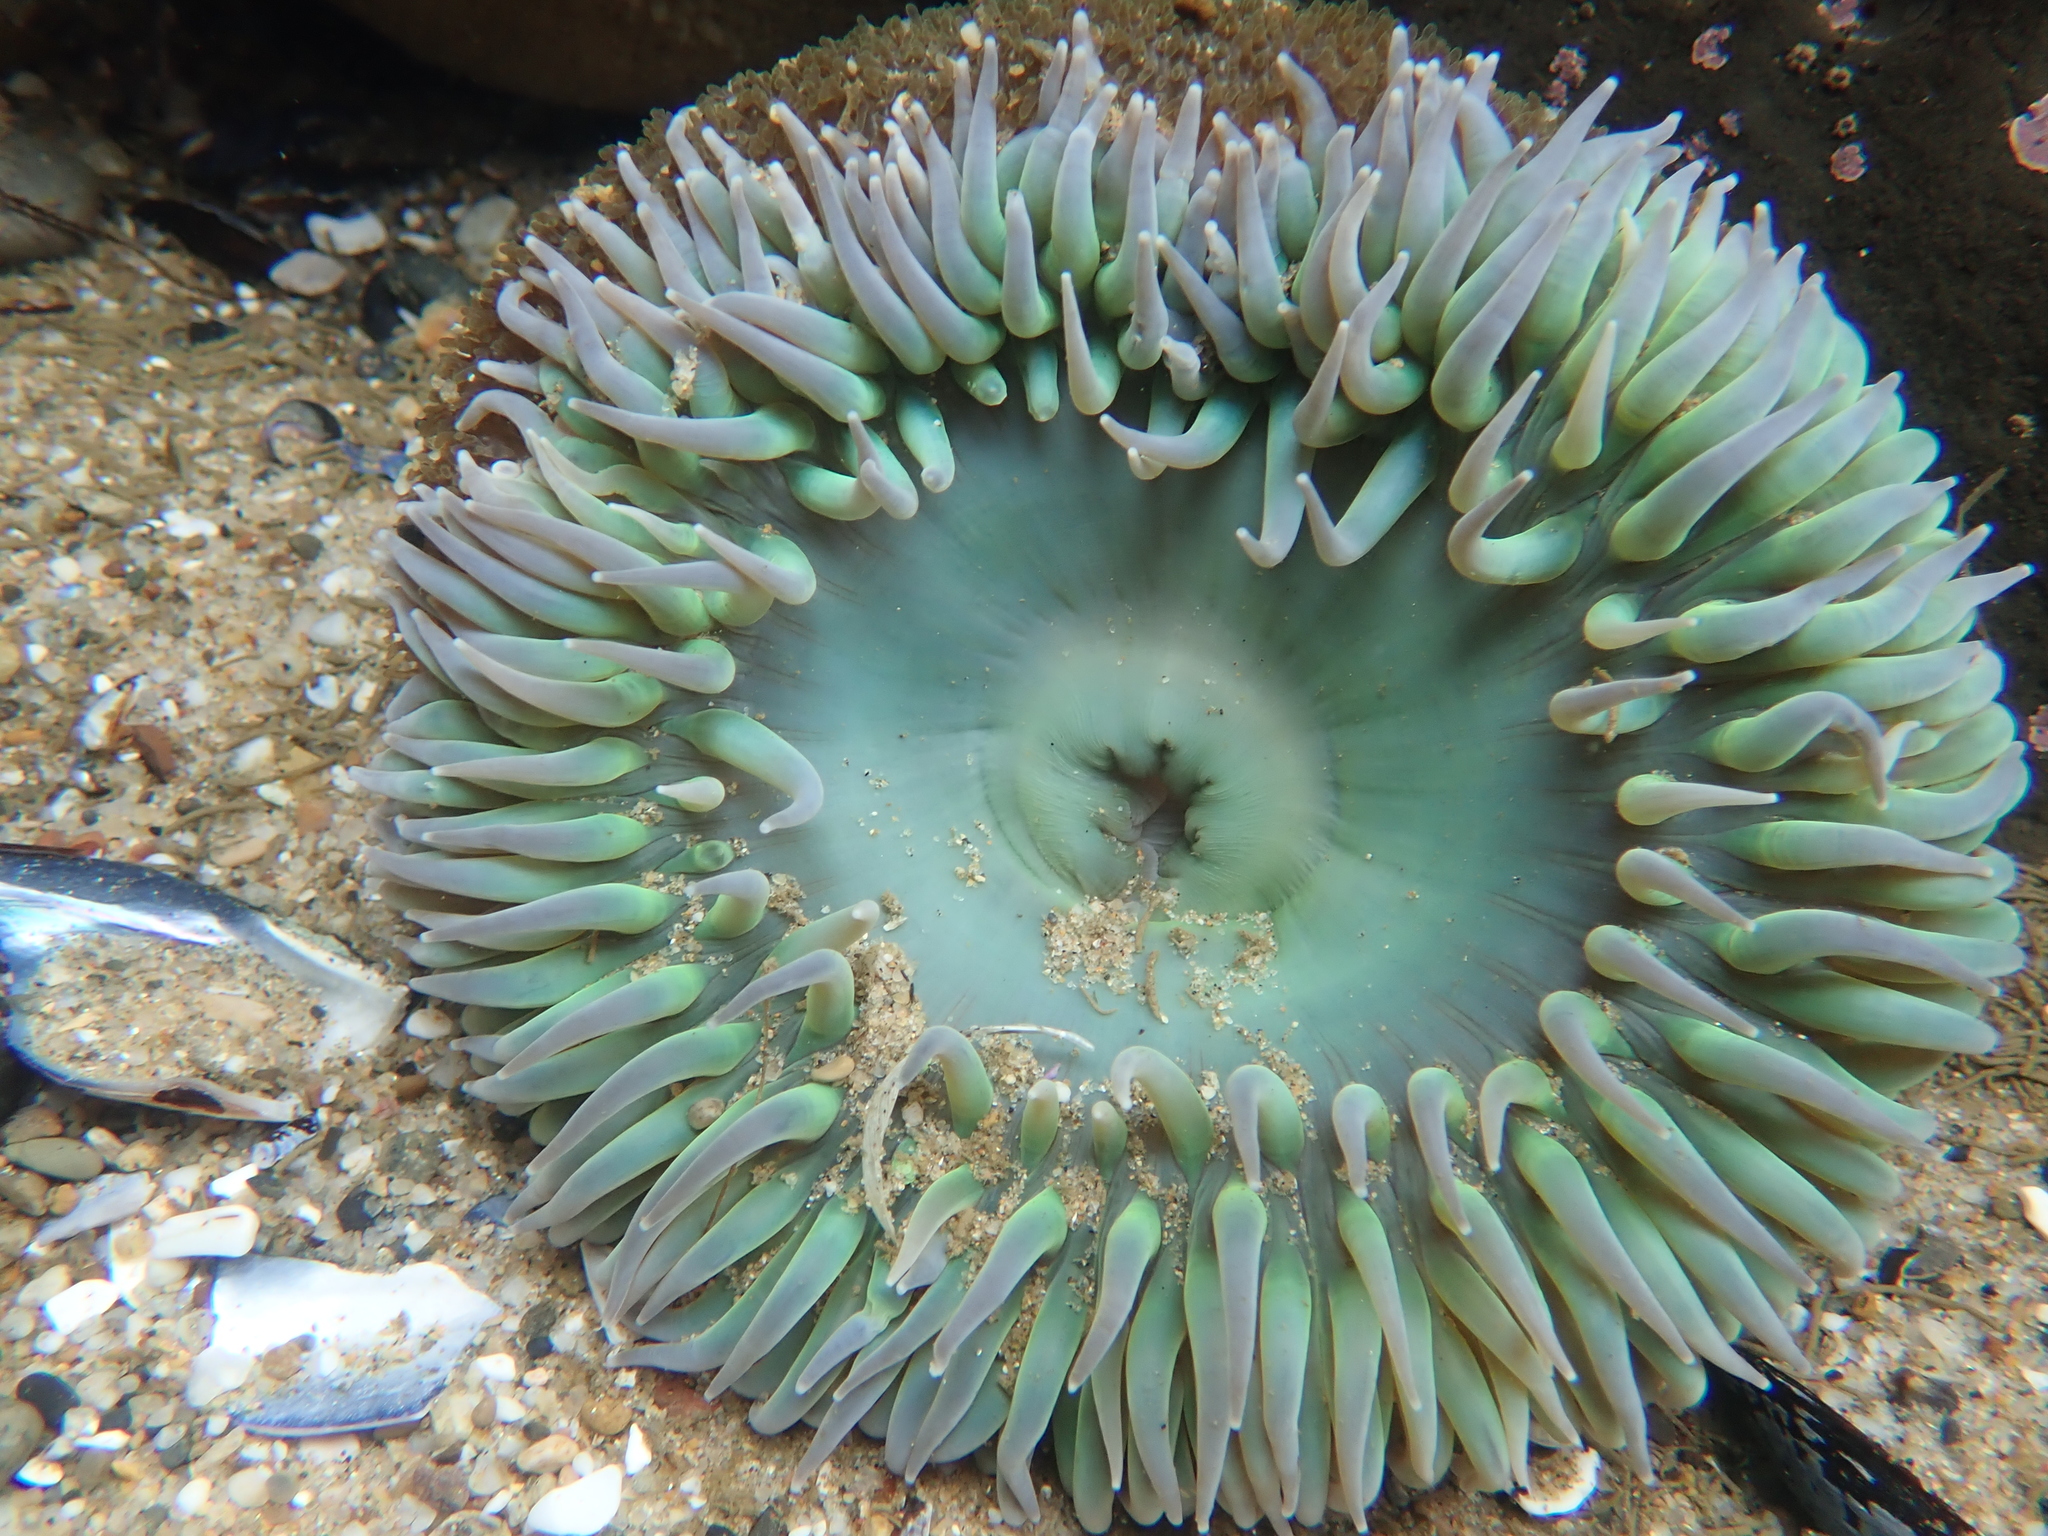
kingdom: Animalia
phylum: Cnidaria
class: Anthozoa
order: Actiniaria
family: Actiniidae
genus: Anthopleura
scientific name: Anthopleura xanthogrammica
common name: Giant green anemone
